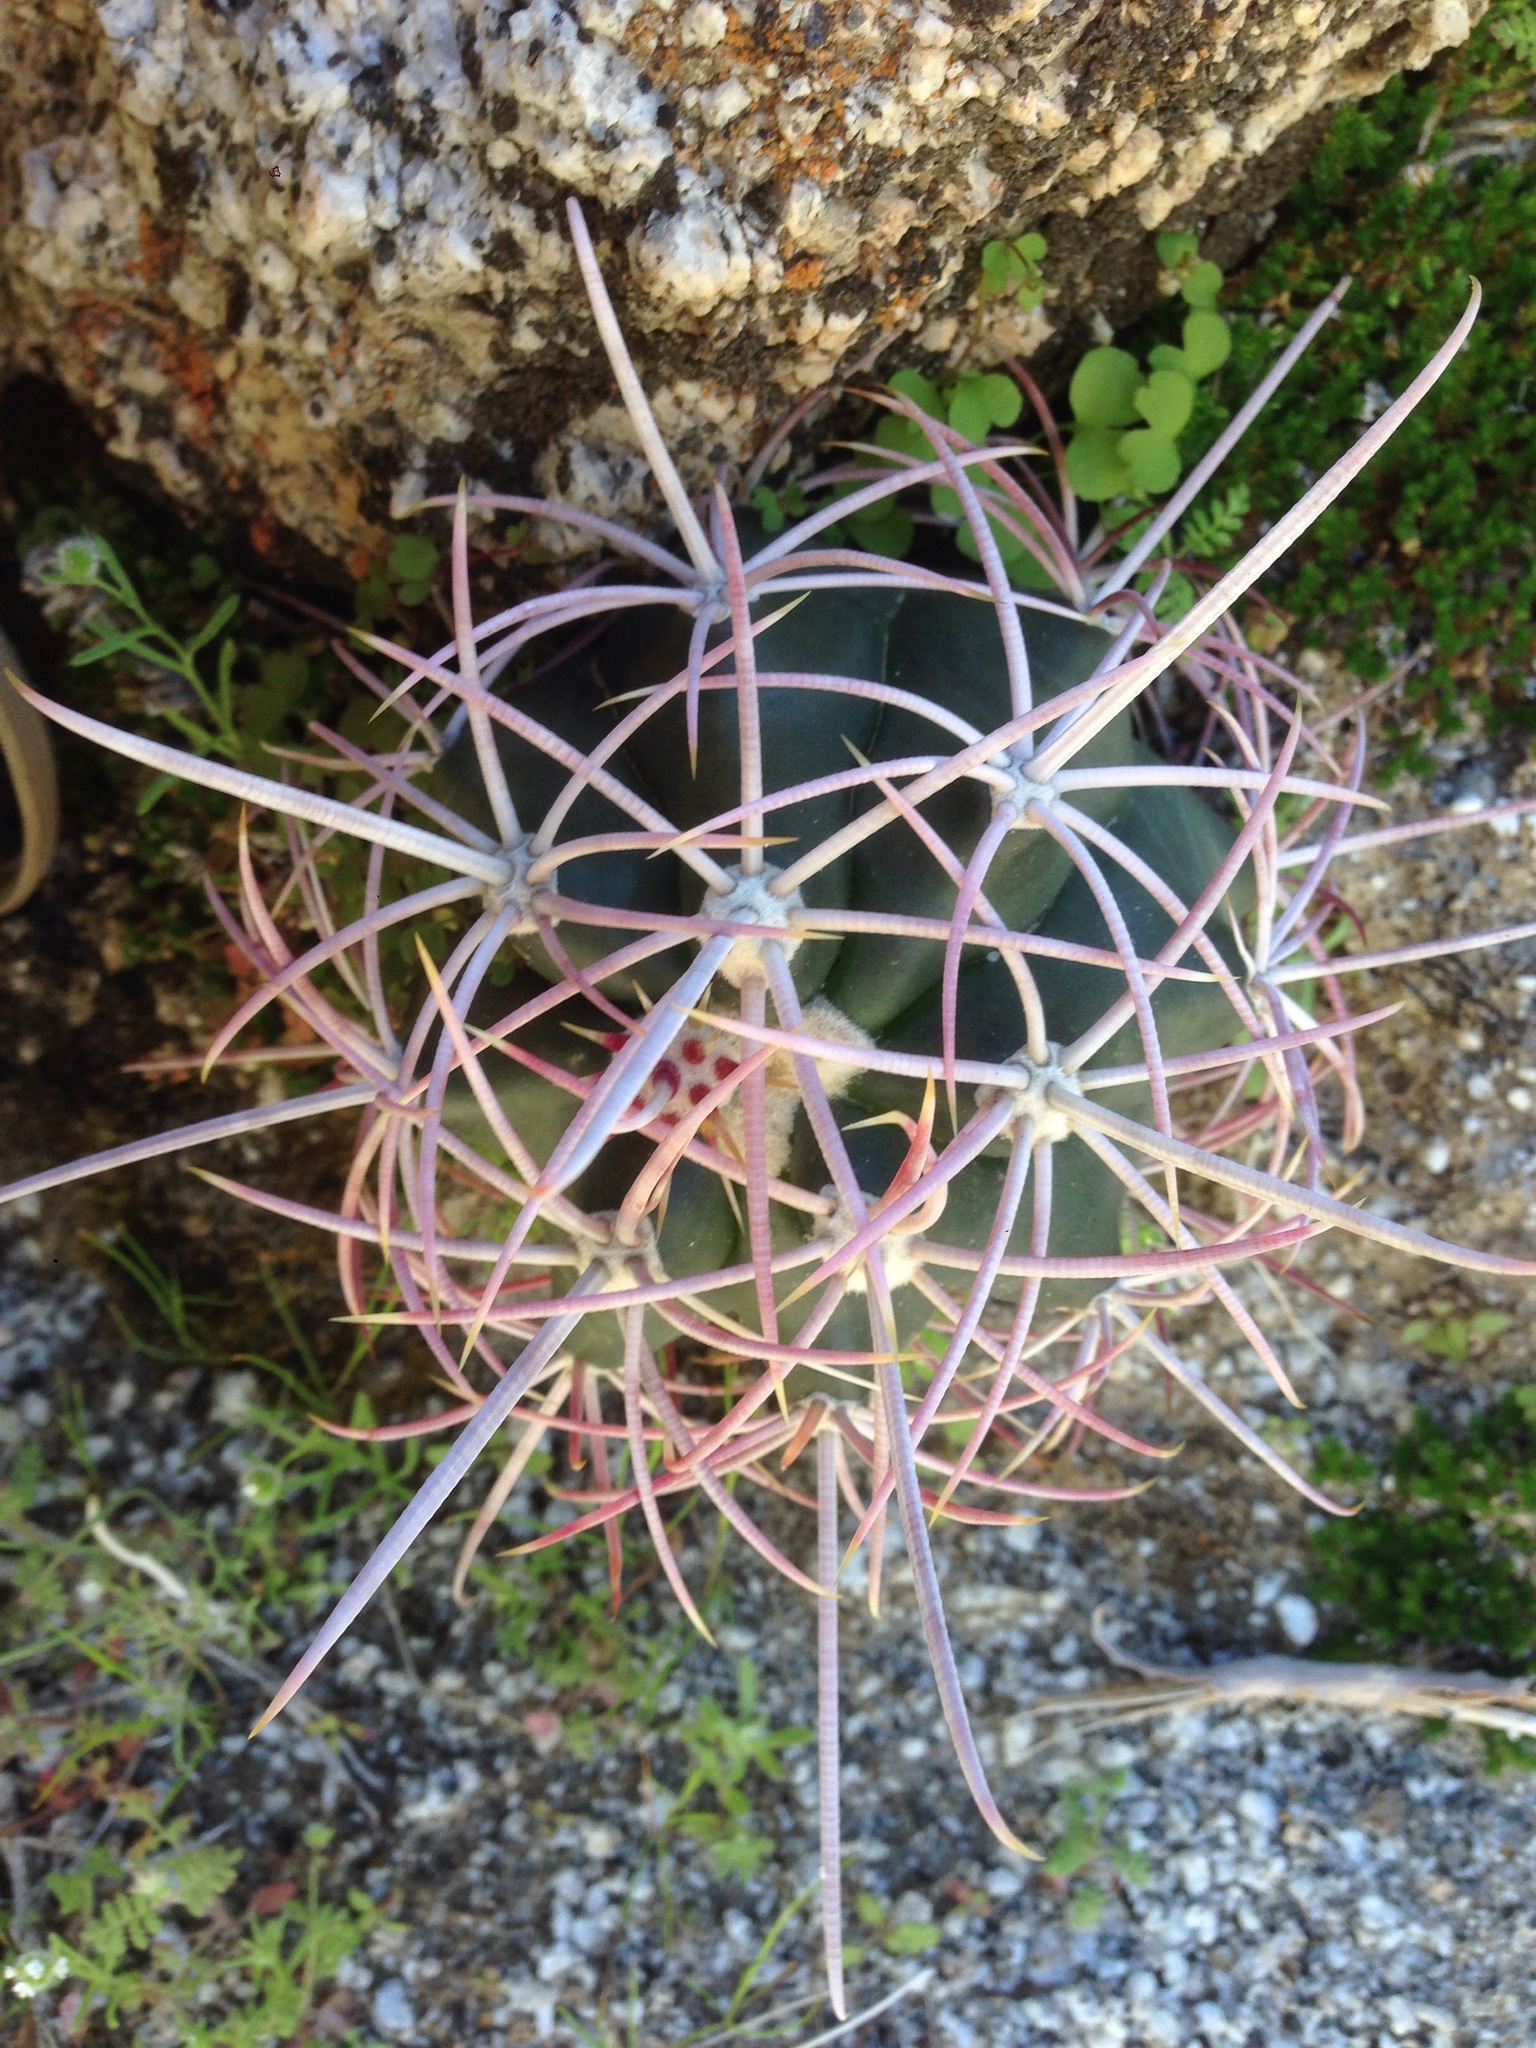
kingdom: Plantae
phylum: Tracheophyta
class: Magnoliopsida
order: Caryophyllales
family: Cactaceae
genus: Ferocactus
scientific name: Ferocactus cylindraceus
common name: California barrel cactus
